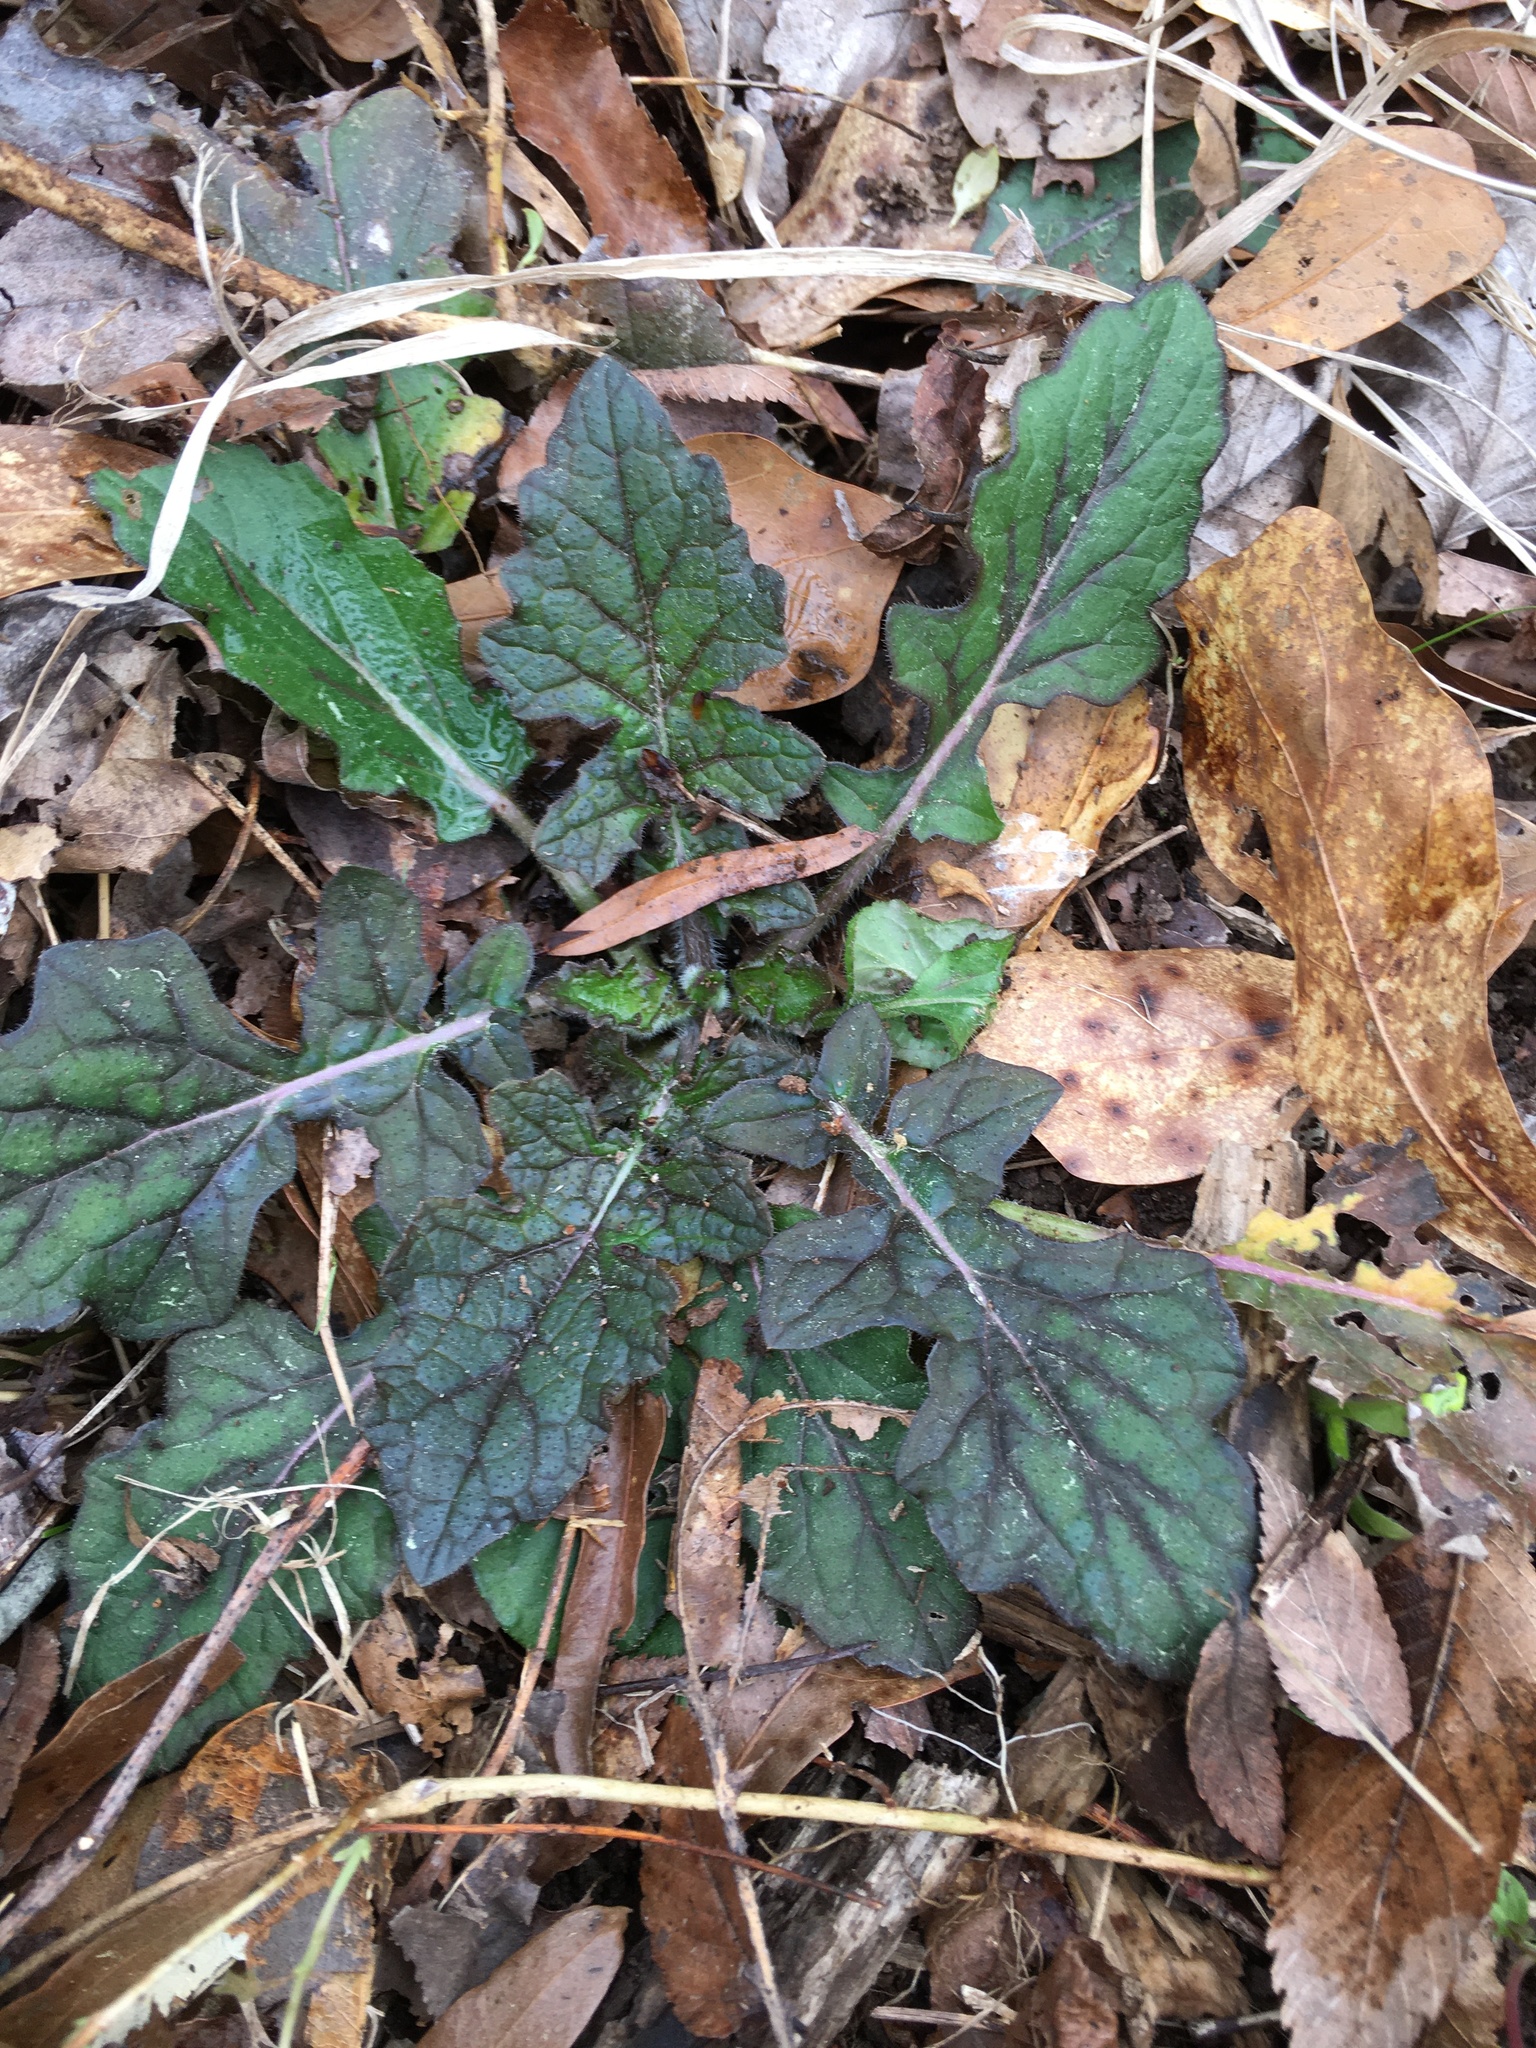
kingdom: Plantae
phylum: Tracheophyta
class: Magnoliopsida
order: Lamiales
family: Lamiaceae
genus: Salvia
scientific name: Salvia lyrata
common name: Cancerweed
